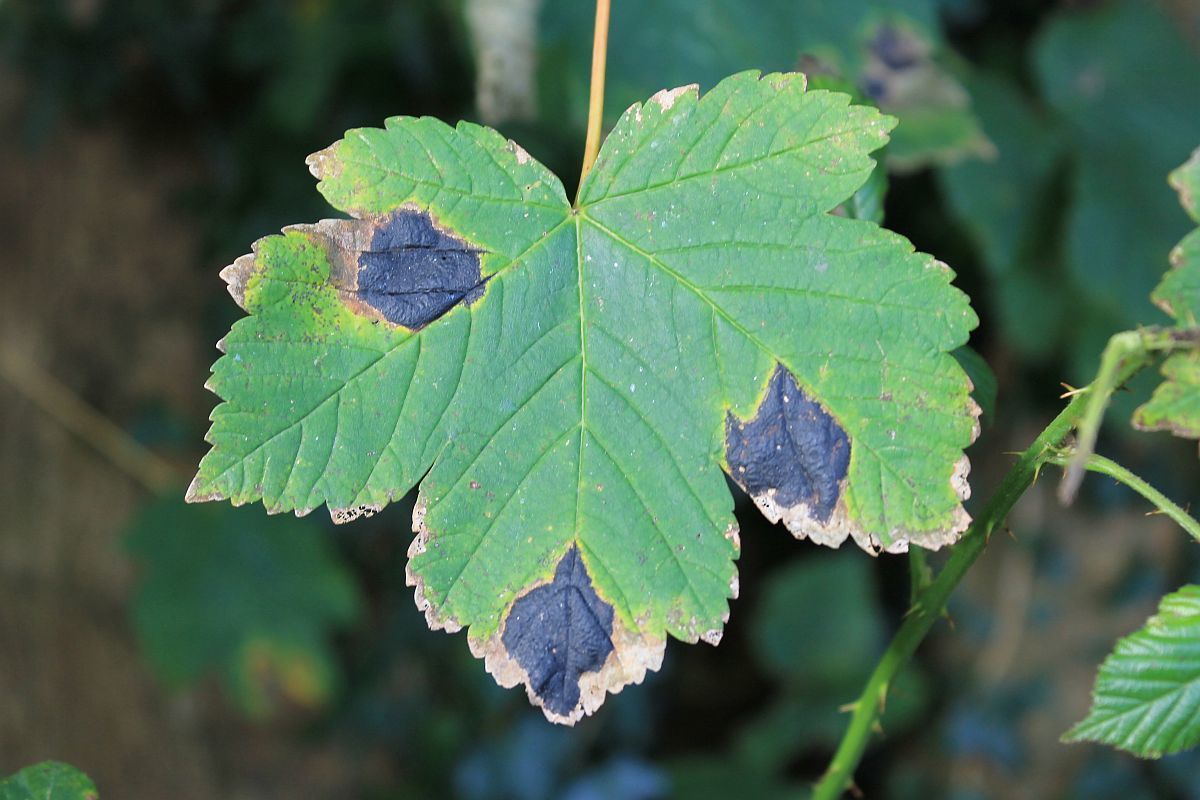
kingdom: Fungi
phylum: Ascomycota
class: Leotiomycetes
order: Rhytismatales
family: Rhytismataceae
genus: Rhytisma
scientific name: Rhytisma acerinum
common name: European tar spot
